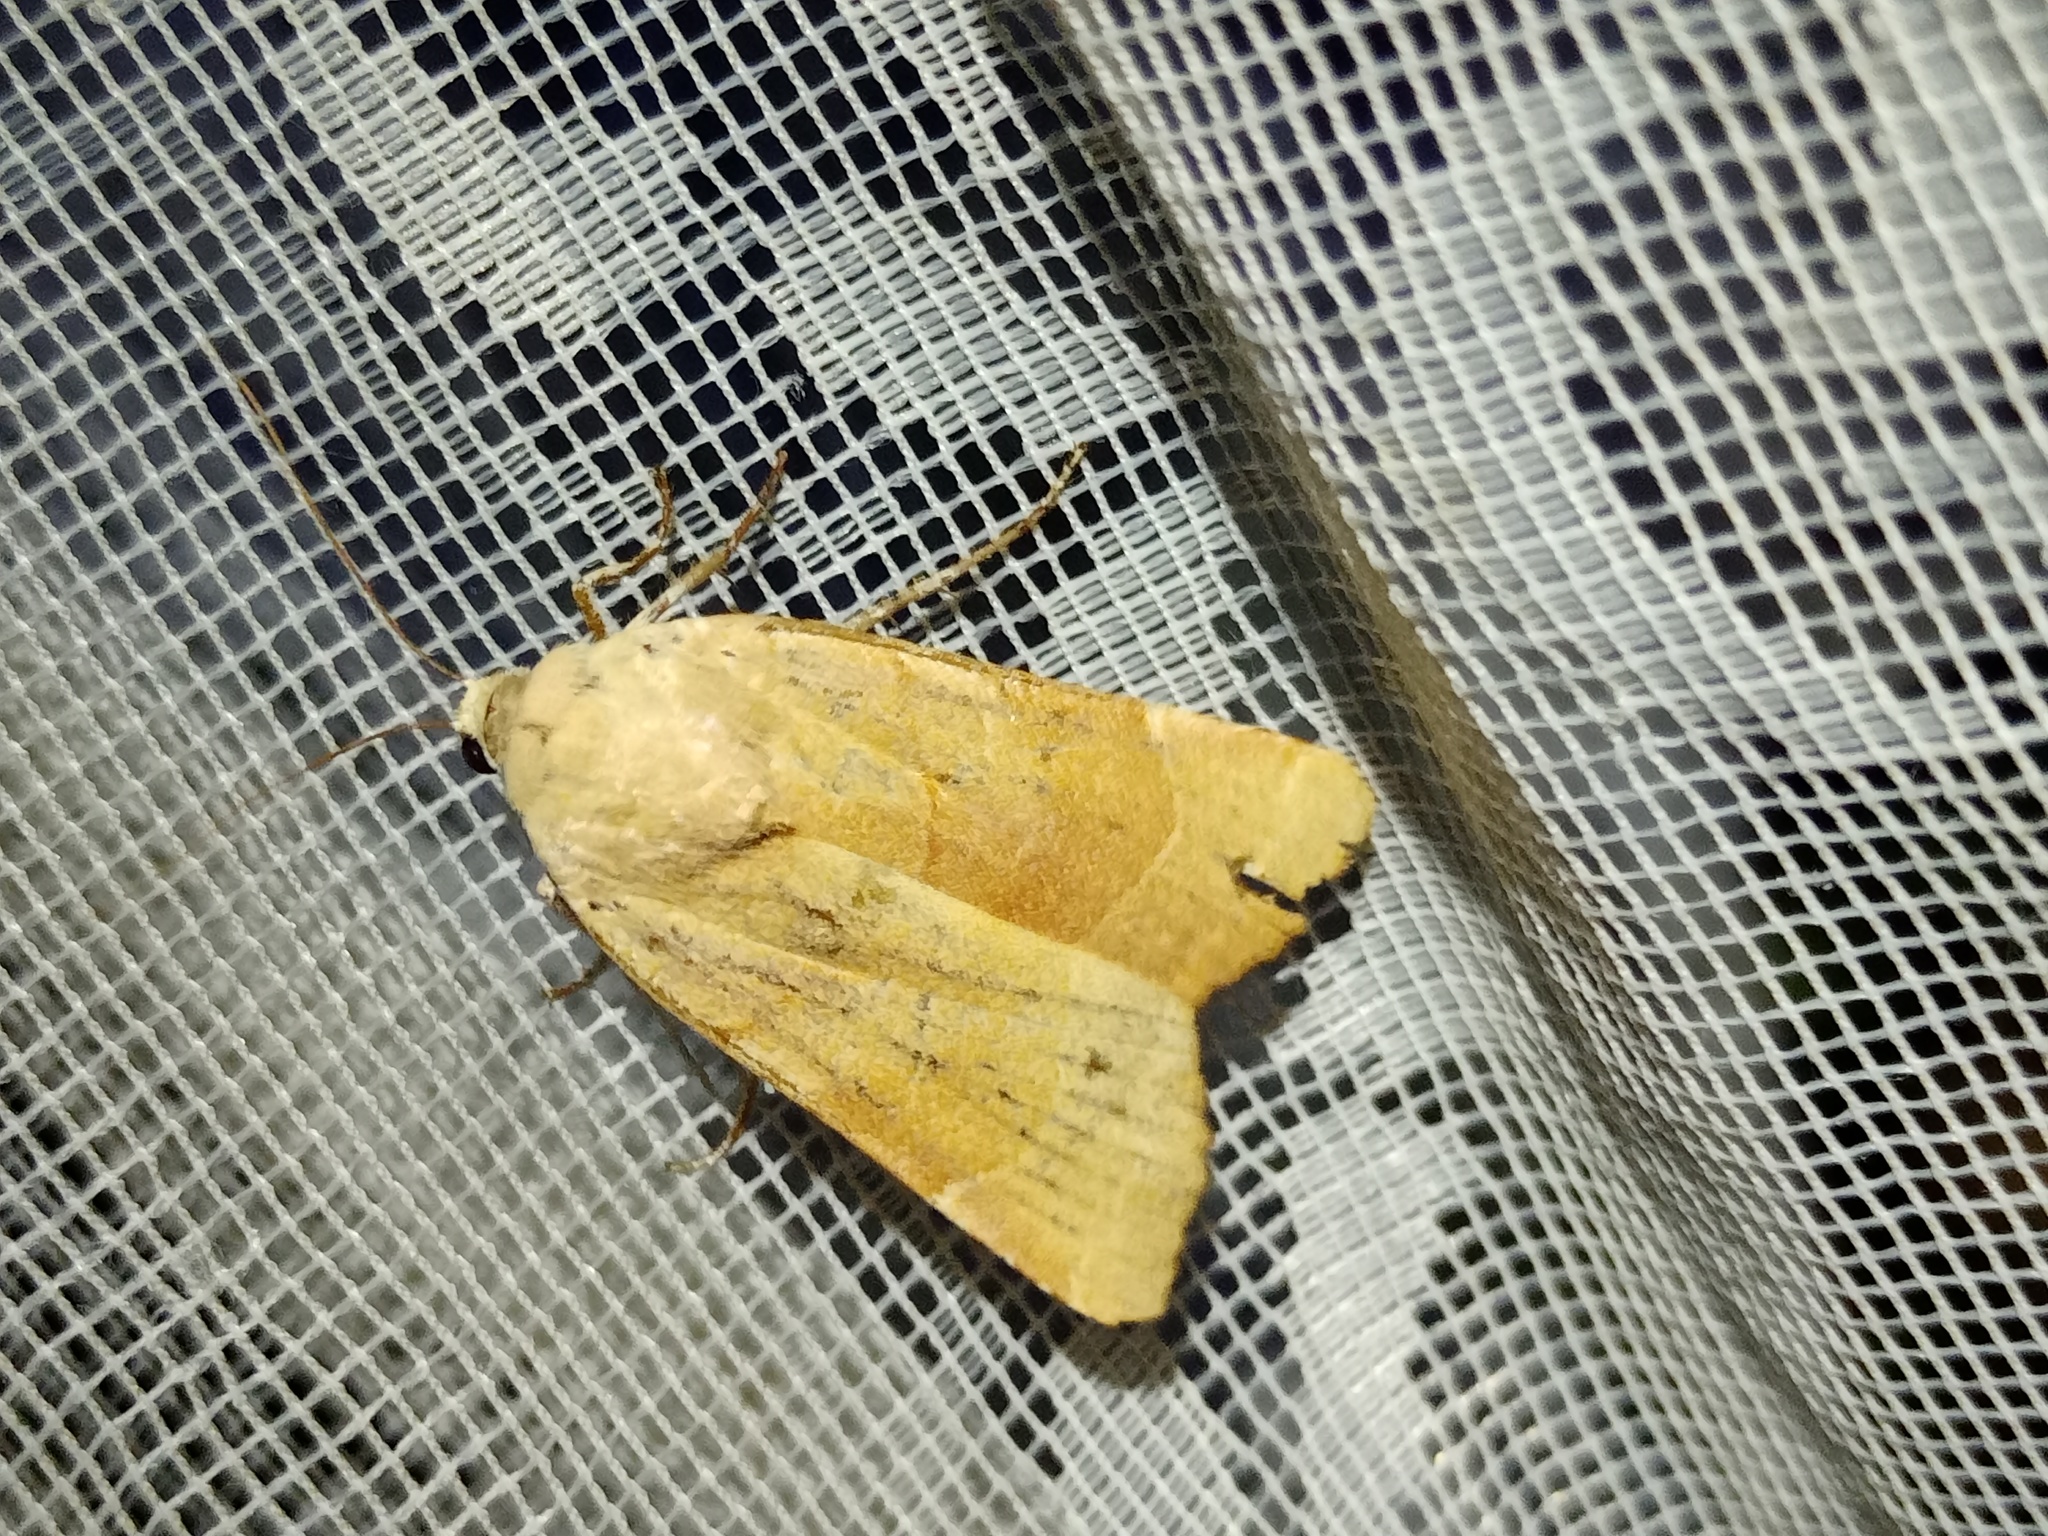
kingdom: Animalia
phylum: Arthropoda
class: Insecta
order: Lepidoptera
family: Noctuidae
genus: Noctua
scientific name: Noctua fimbriata
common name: Broad-bordered yellow underwing
